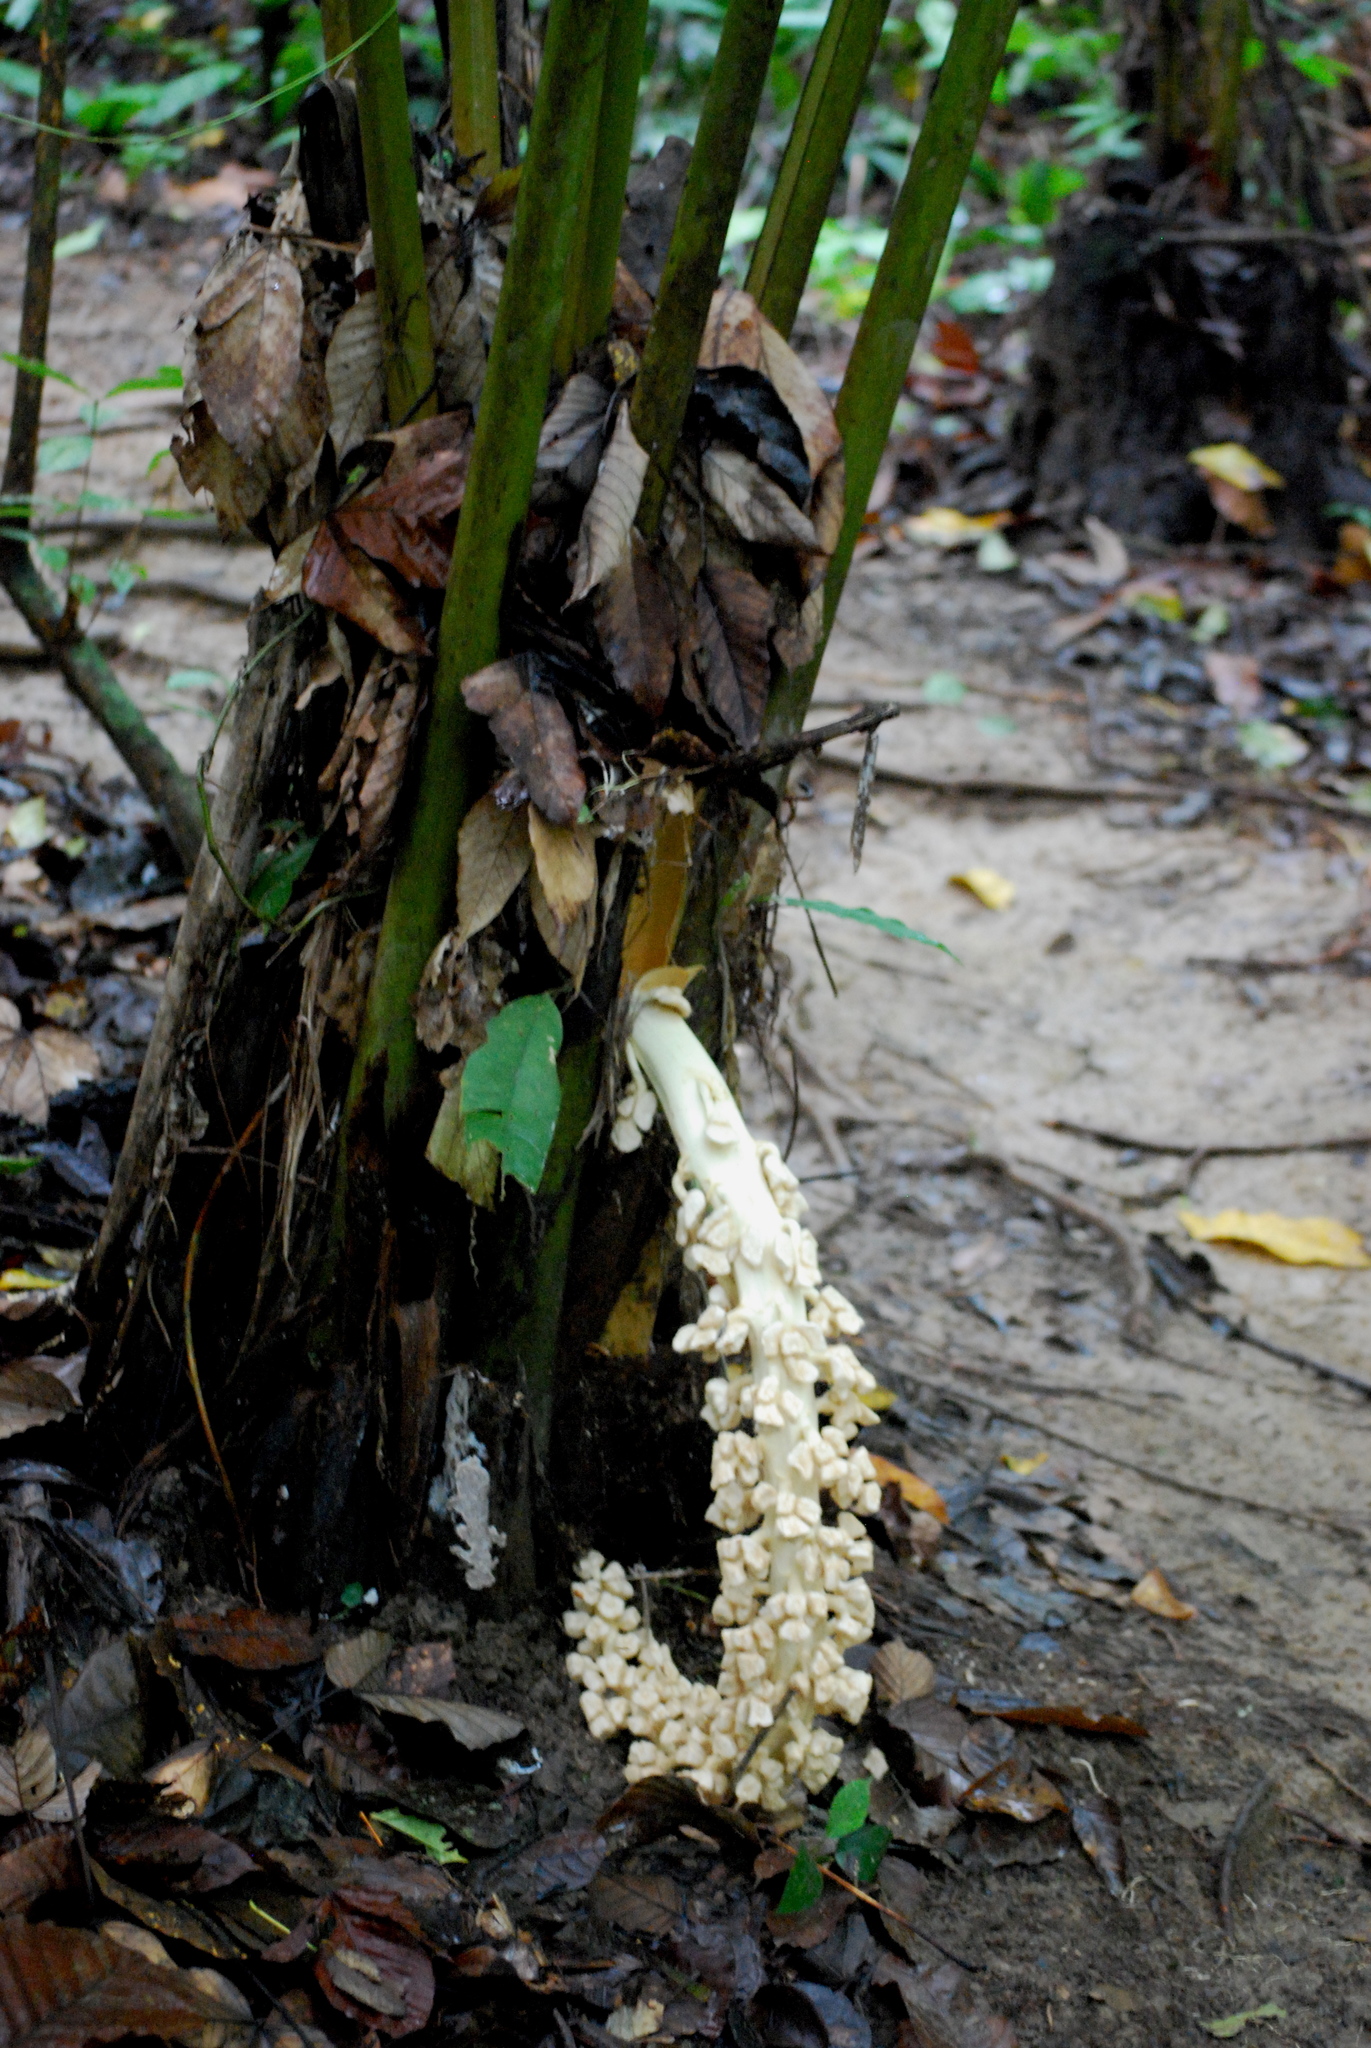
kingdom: Plantae
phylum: Tracheophyta
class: Liliopsida
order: Arecales
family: Arecaceae
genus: Ammandra
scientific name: Ammandra decasperma
